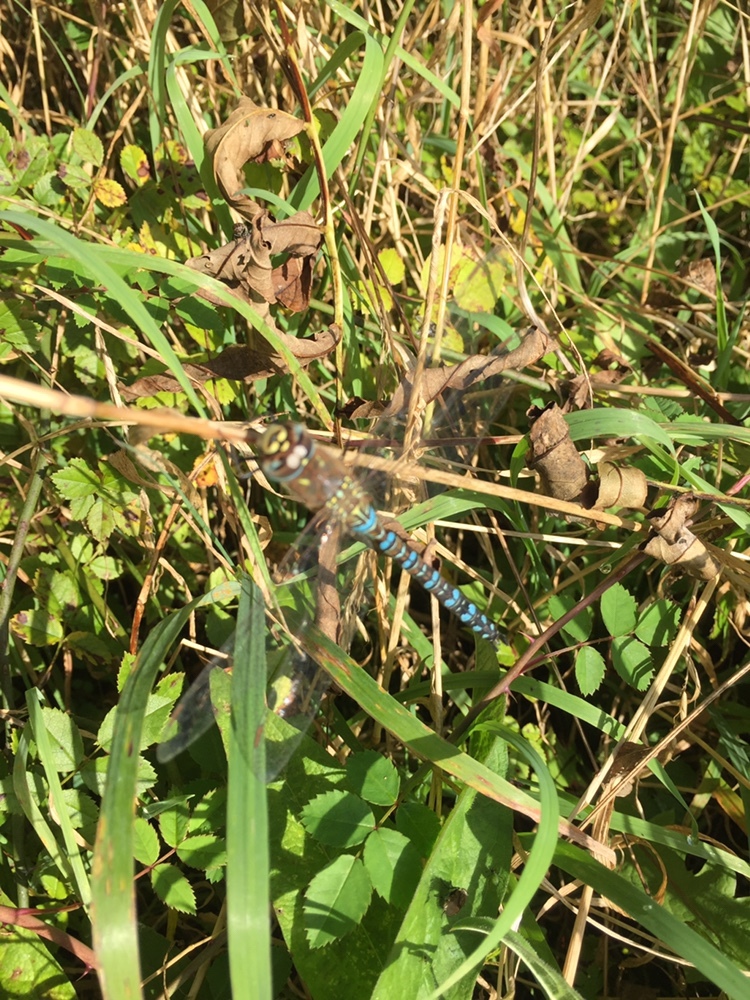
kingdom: Animalia
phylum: Arthropoda
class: Insecta
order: Odonata
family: Aeshnidae
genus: Aeshna
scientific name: Aeshna mixta
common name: Migrant hawker
